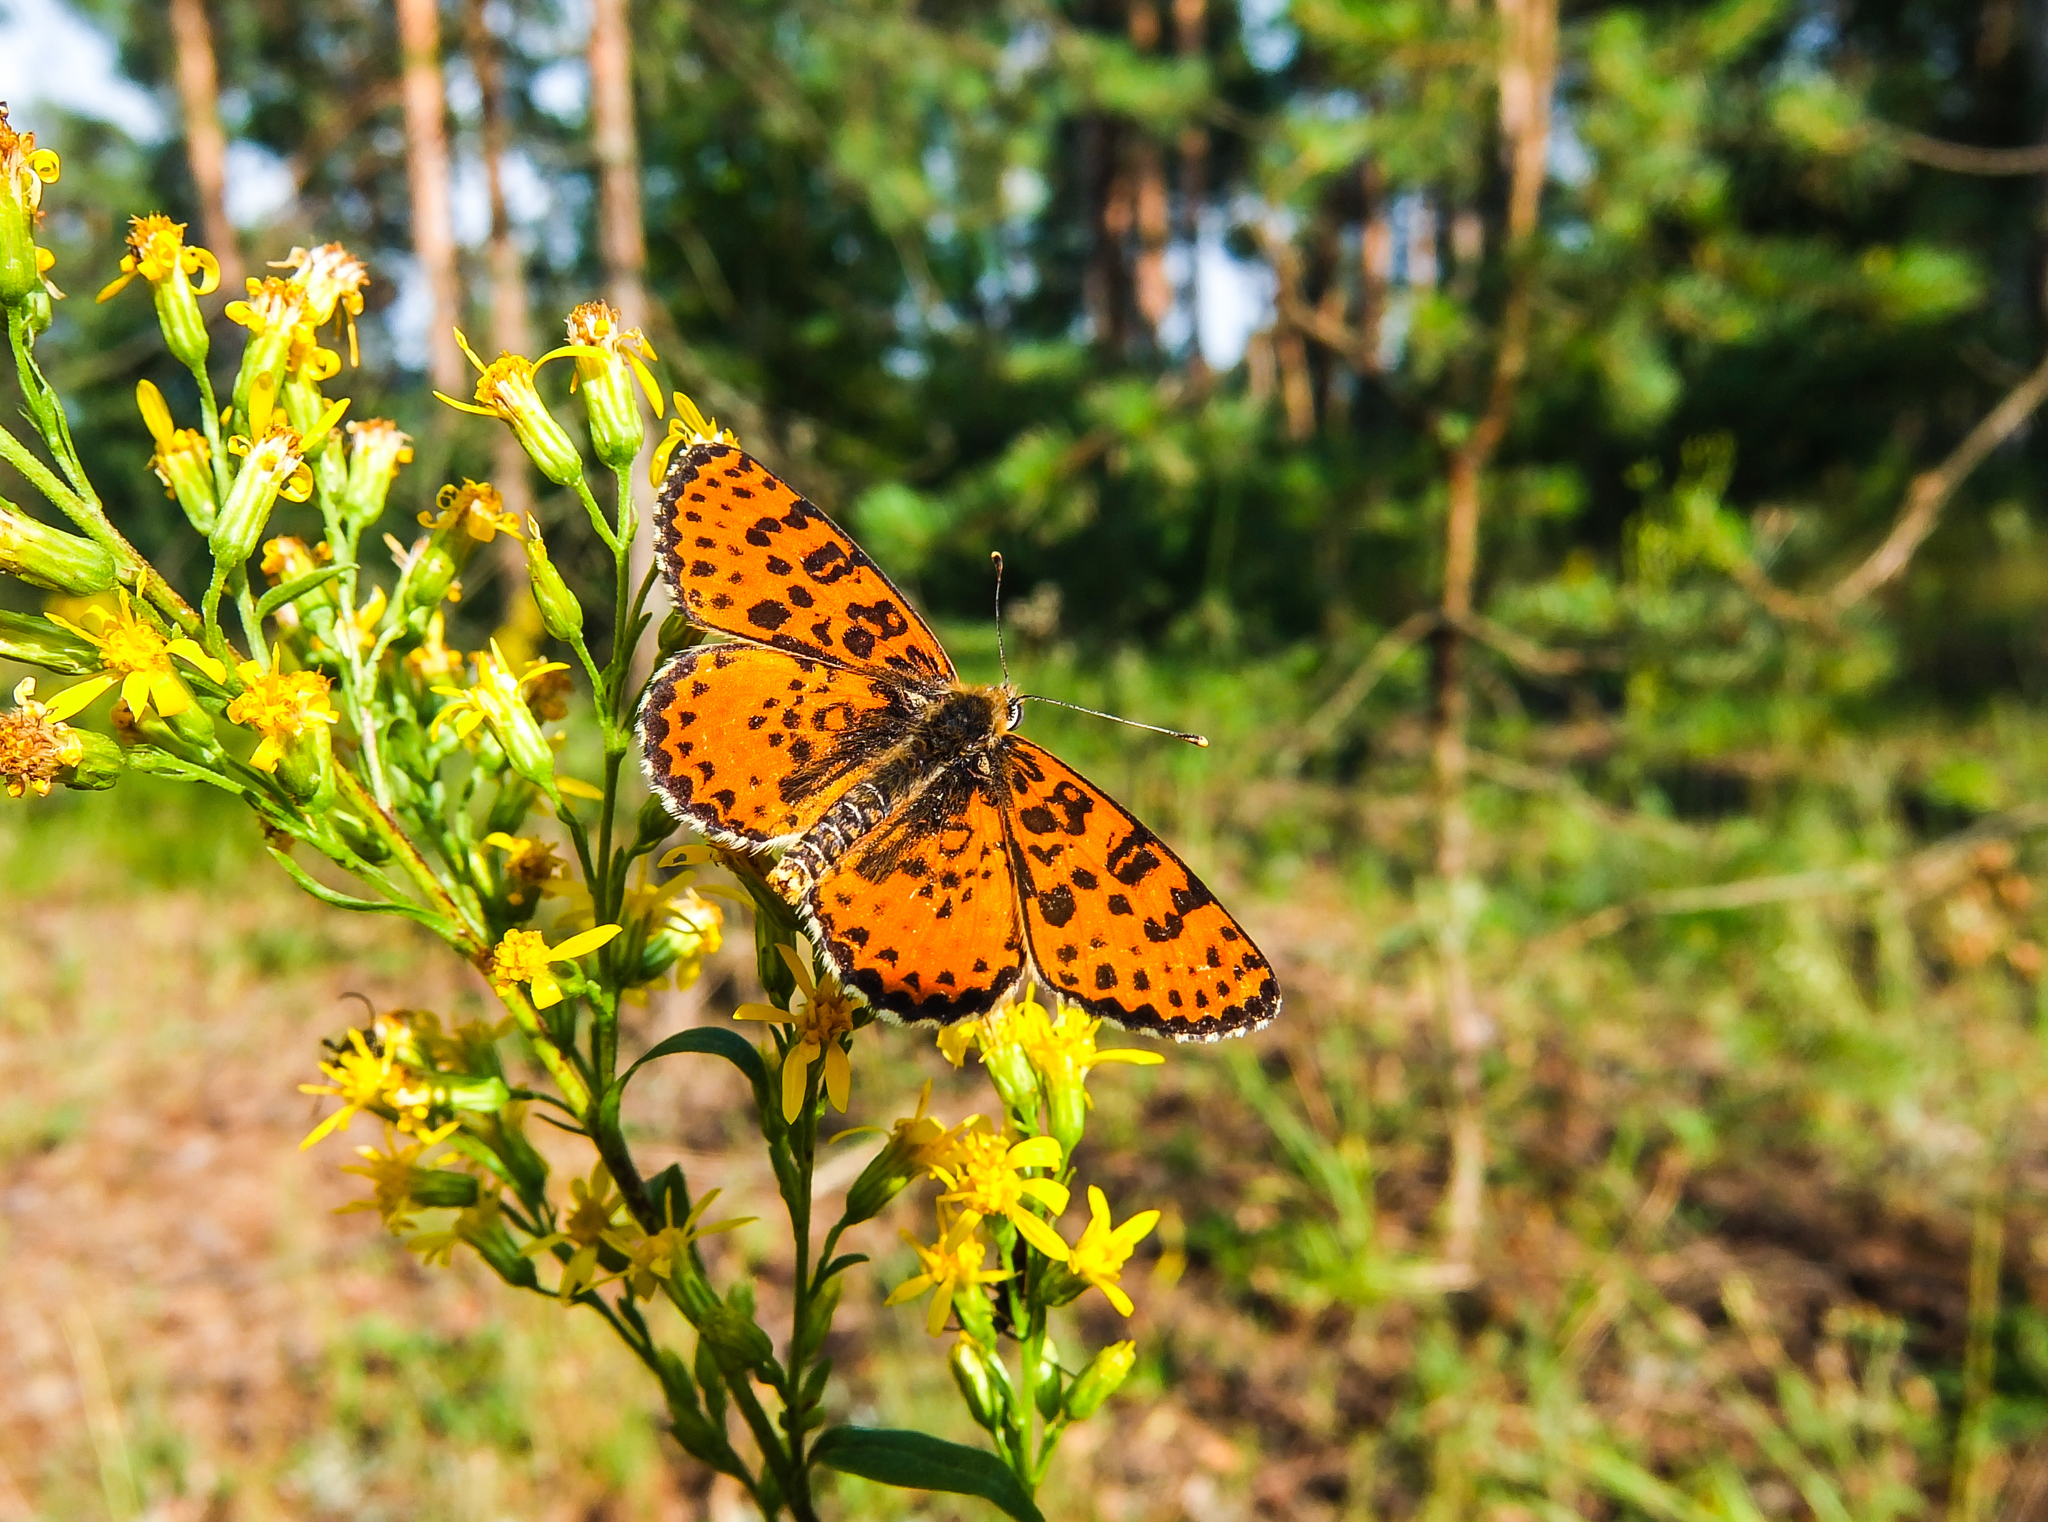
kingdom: Animalia
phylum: Arthropoda
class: Insecta
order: Lepidoptera
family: Nymphalidae
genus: Melitaea
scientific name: Melitaea didyma
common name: Spotted fritillary
